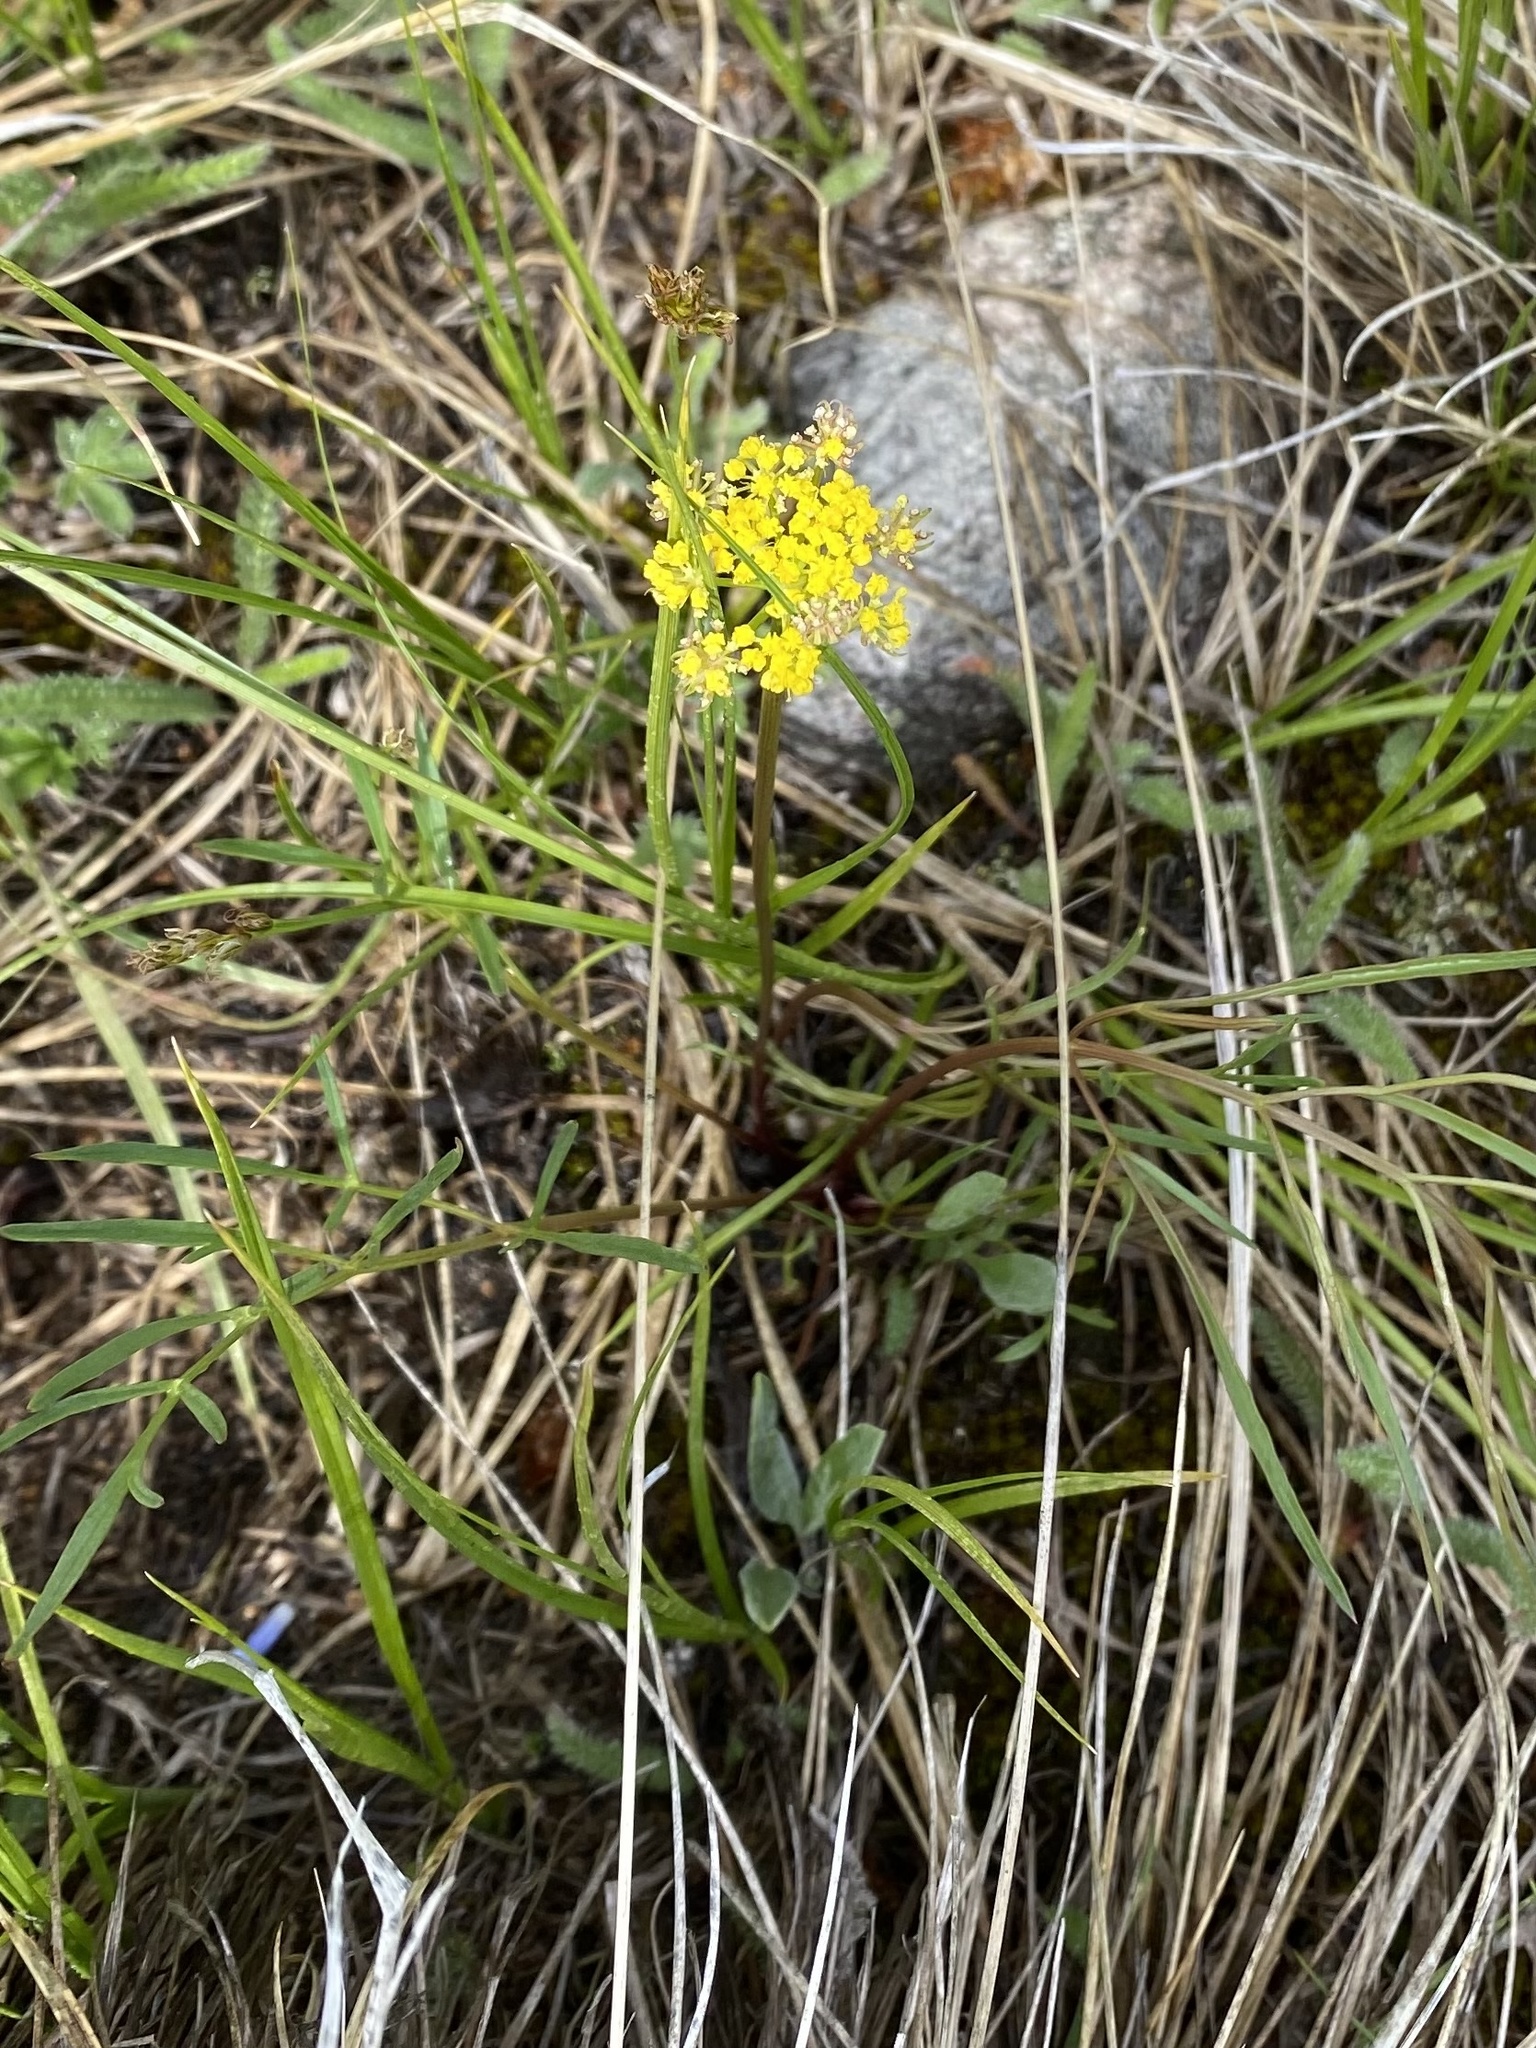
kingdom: Plantae
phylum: Tracheophyta
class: Magnoliopsida
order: Apiales
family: Apiaceae
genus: Cymopterus
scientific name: Cymopterus lemmonii
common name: Lemmon's spring-parsley
